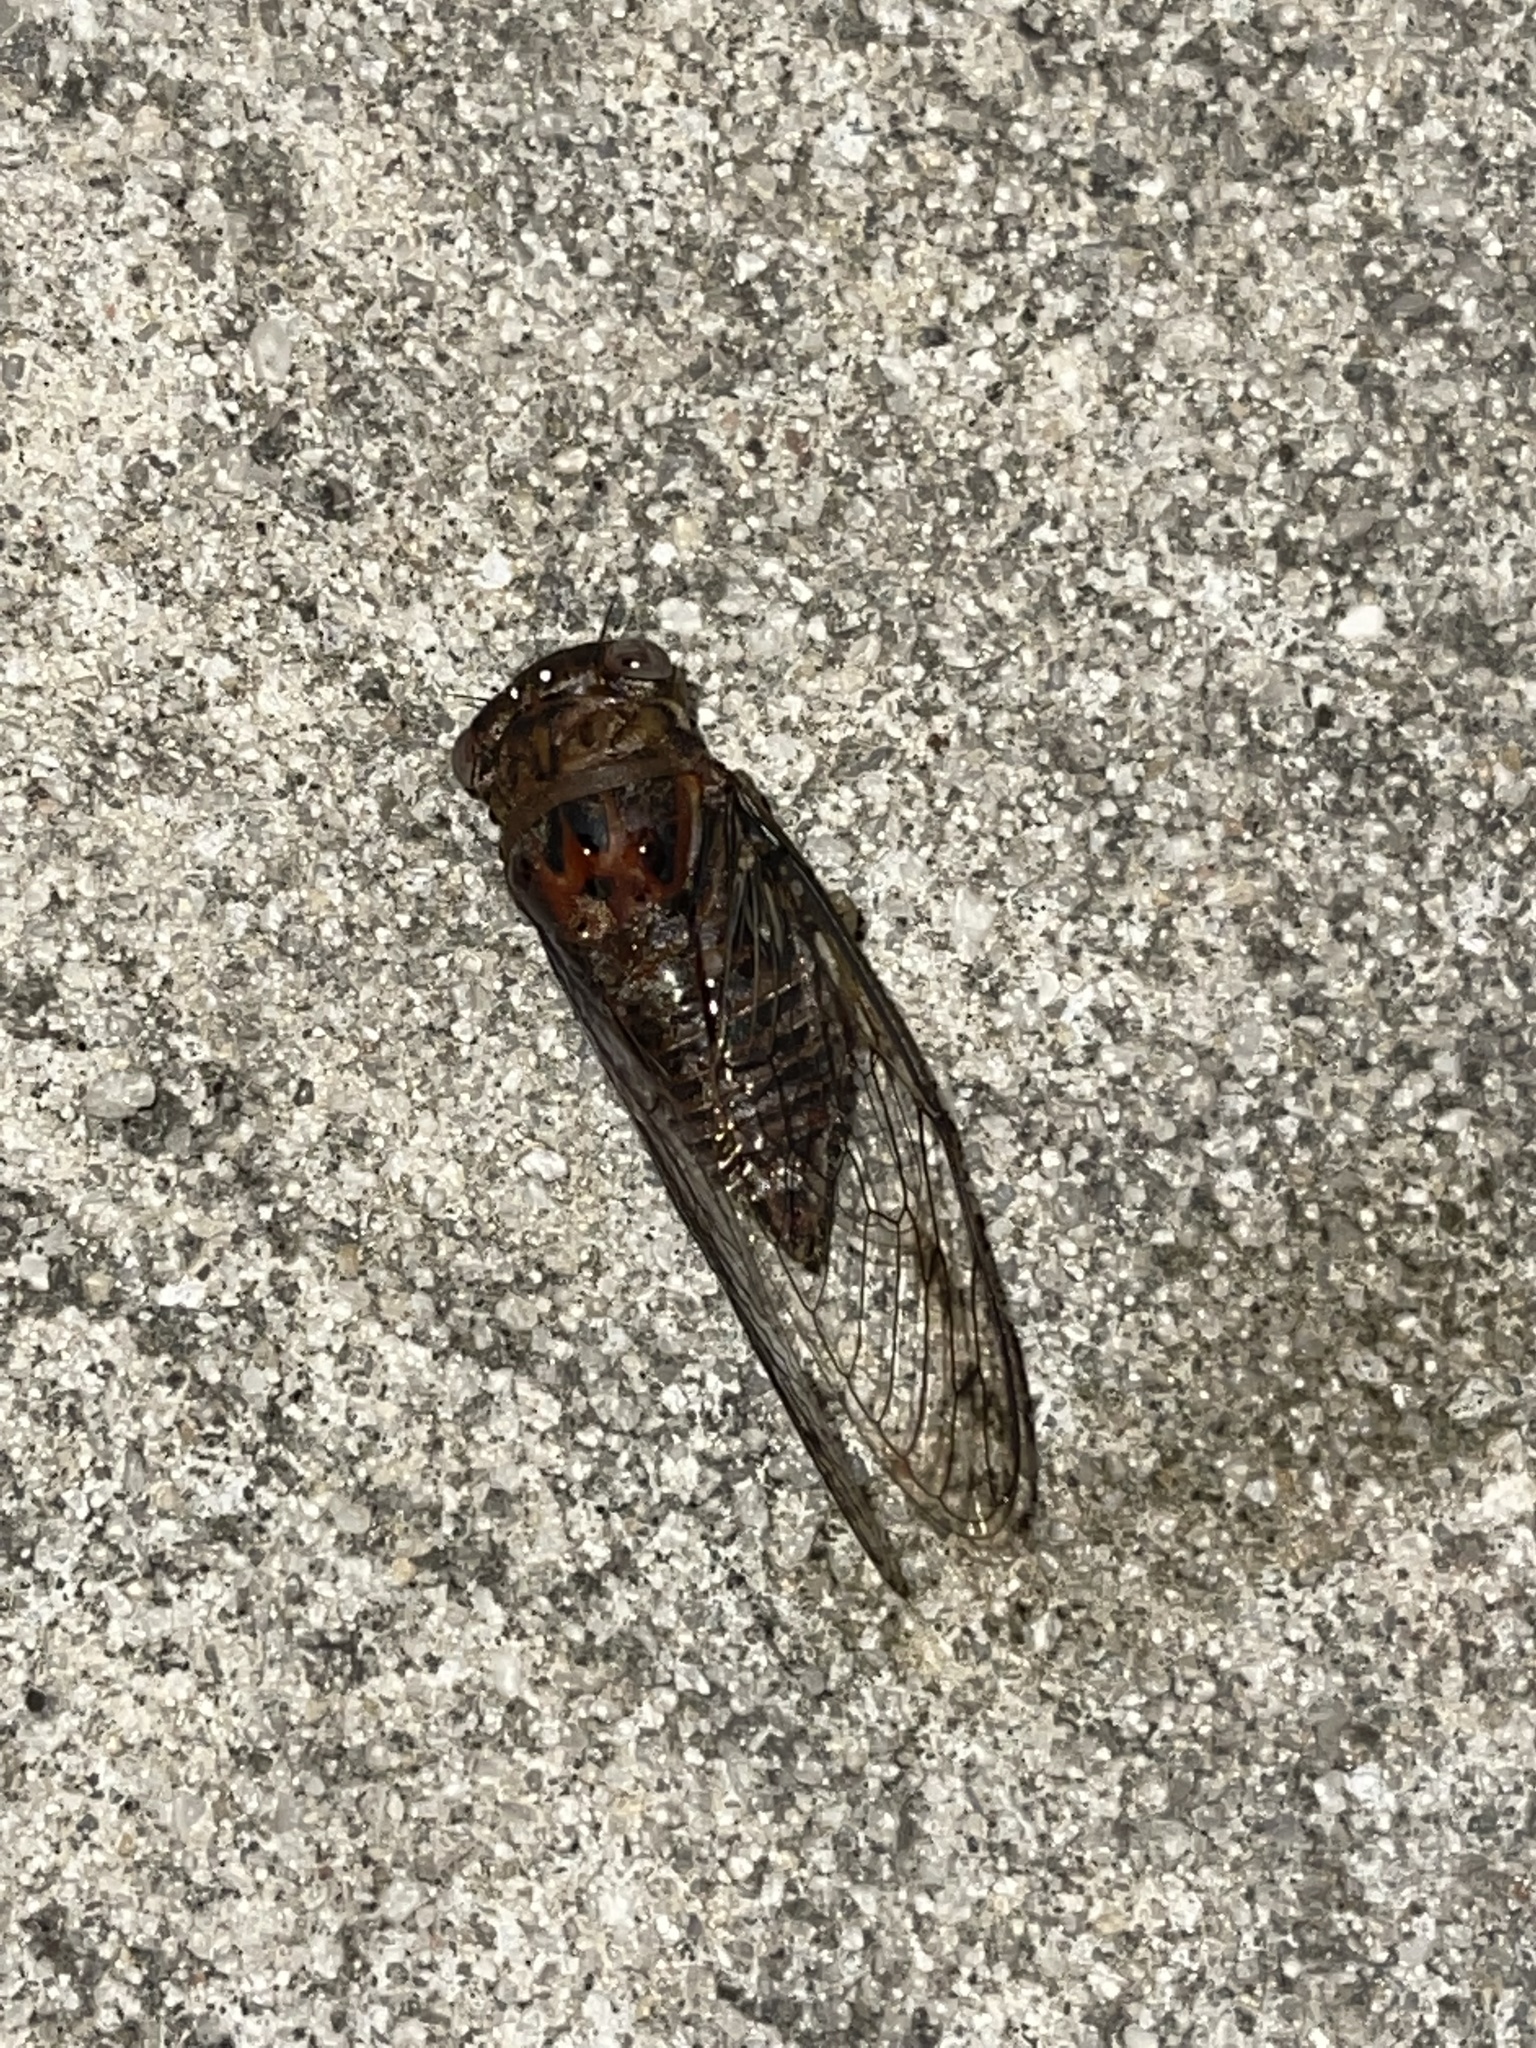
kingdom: Animalia
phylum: Arthropoda
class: Insecta
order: Hemiptera
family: Cicadidae
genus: Diceroprocta
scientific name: Diceroprocta olympusa
